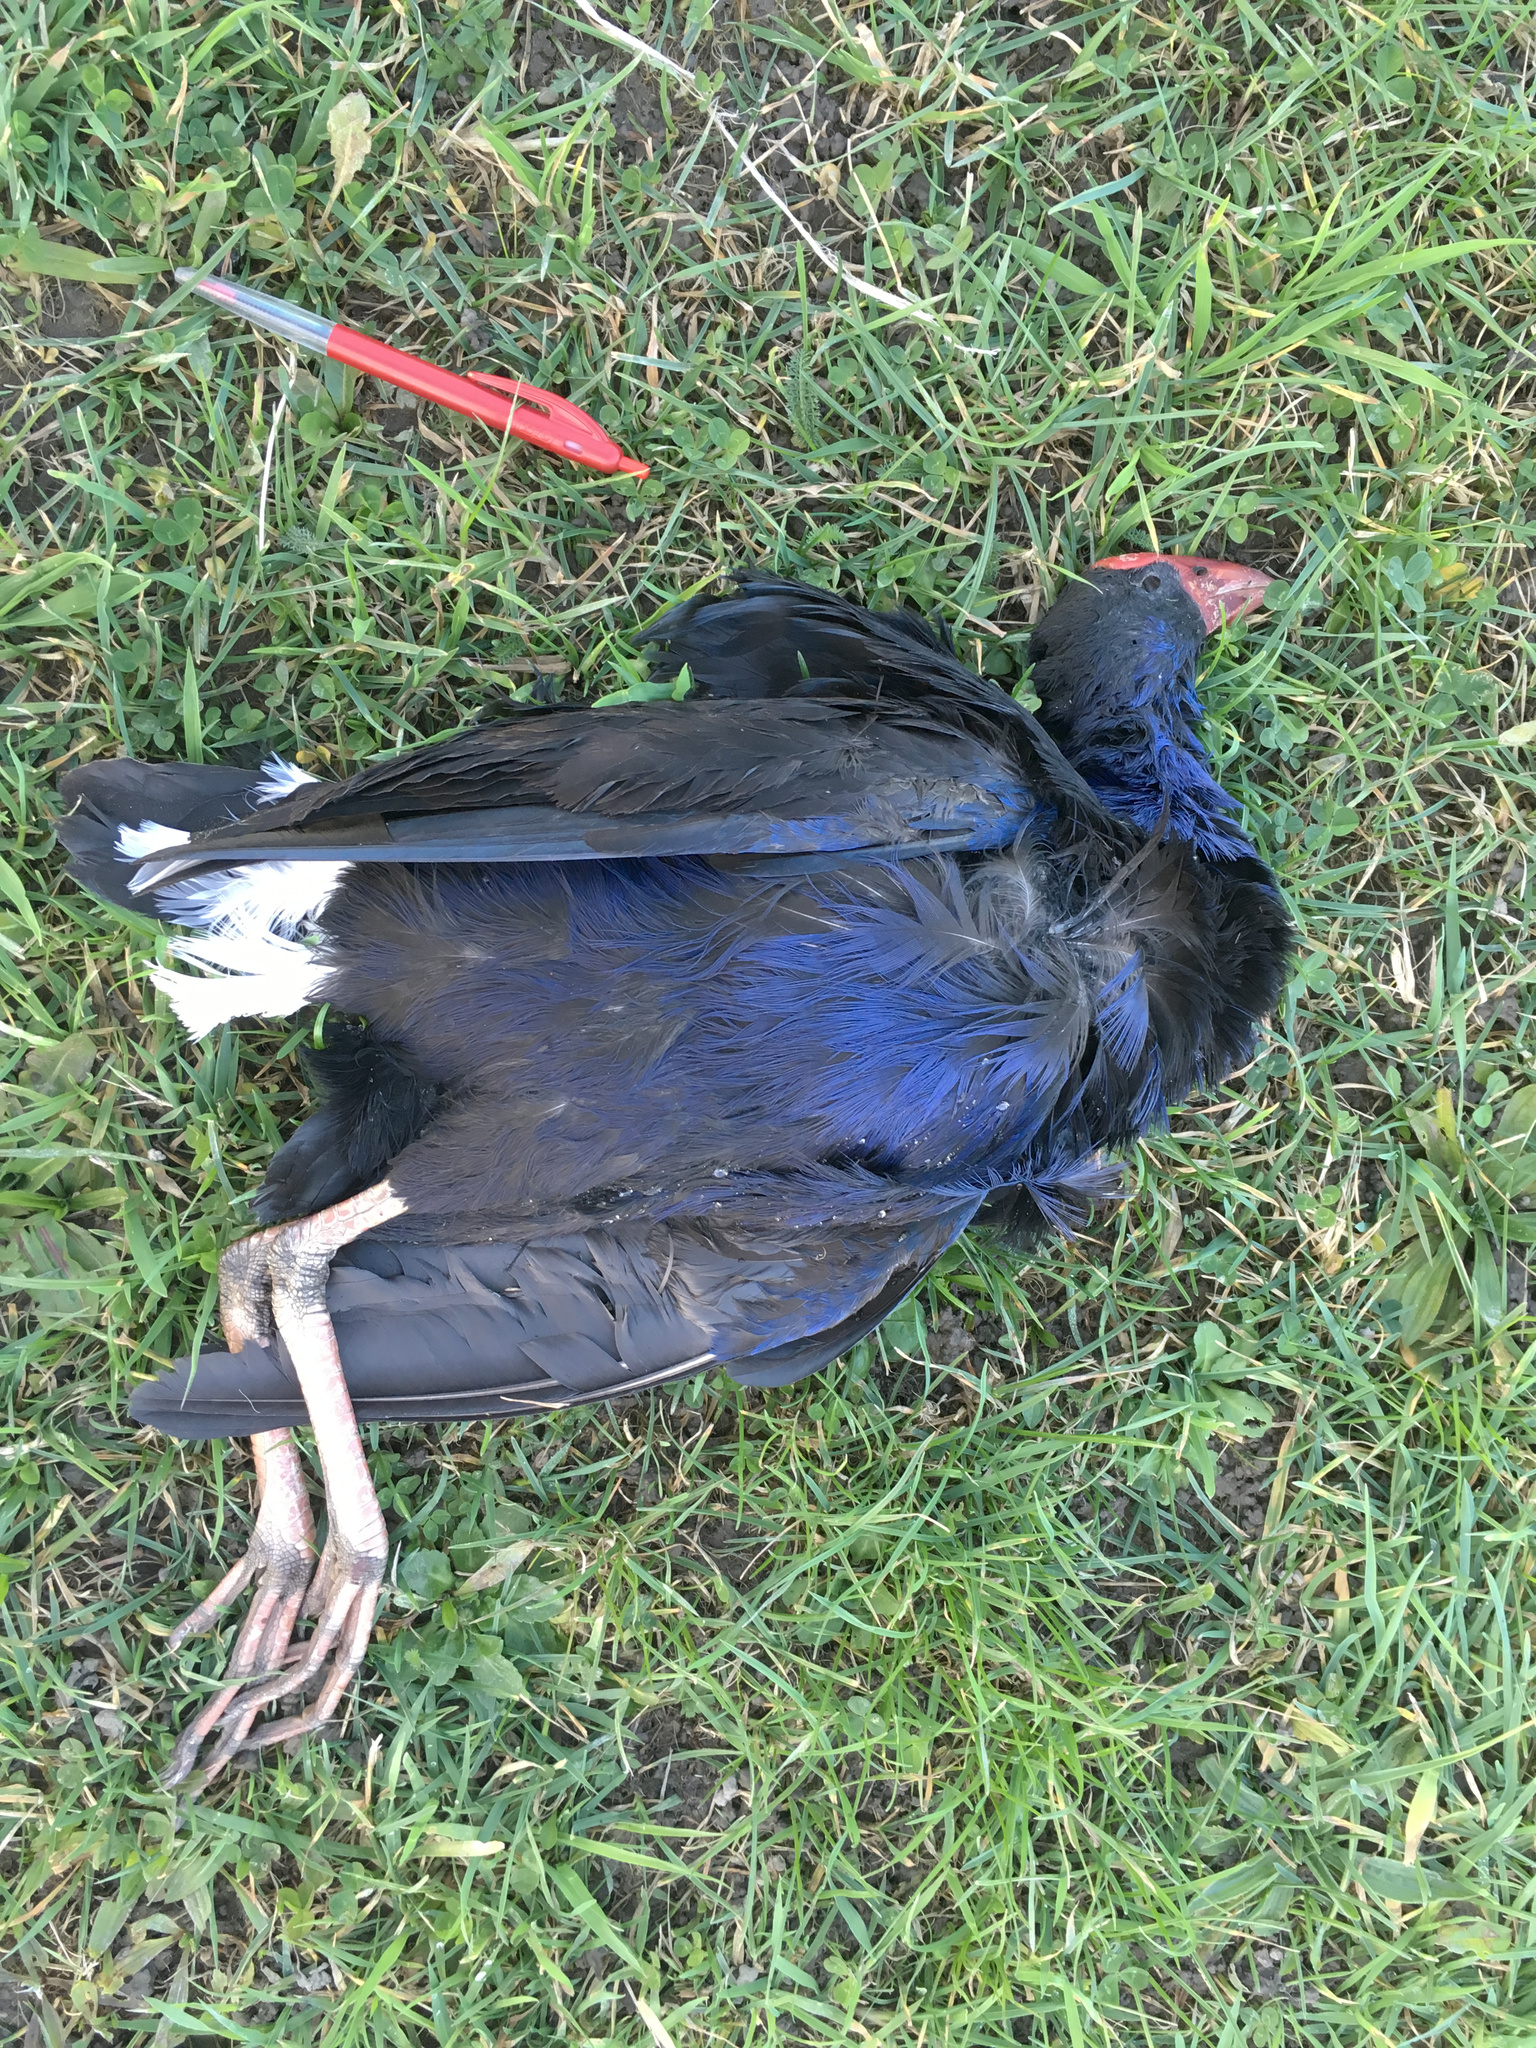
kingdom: Animalia
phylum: Chordata
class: Aves
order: Gruiformes
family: Rallidae
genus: Porphyrio
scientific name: Porphyrio melanotus
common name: Australasian swamphen
